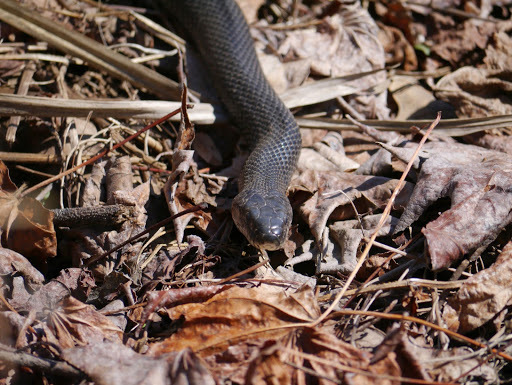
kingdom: Animalia
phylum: Chordata
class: Squamata
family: Colubridae
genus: Pantherophis
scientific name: Pantherophis alleghaniensis
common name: Eastern rat snake
